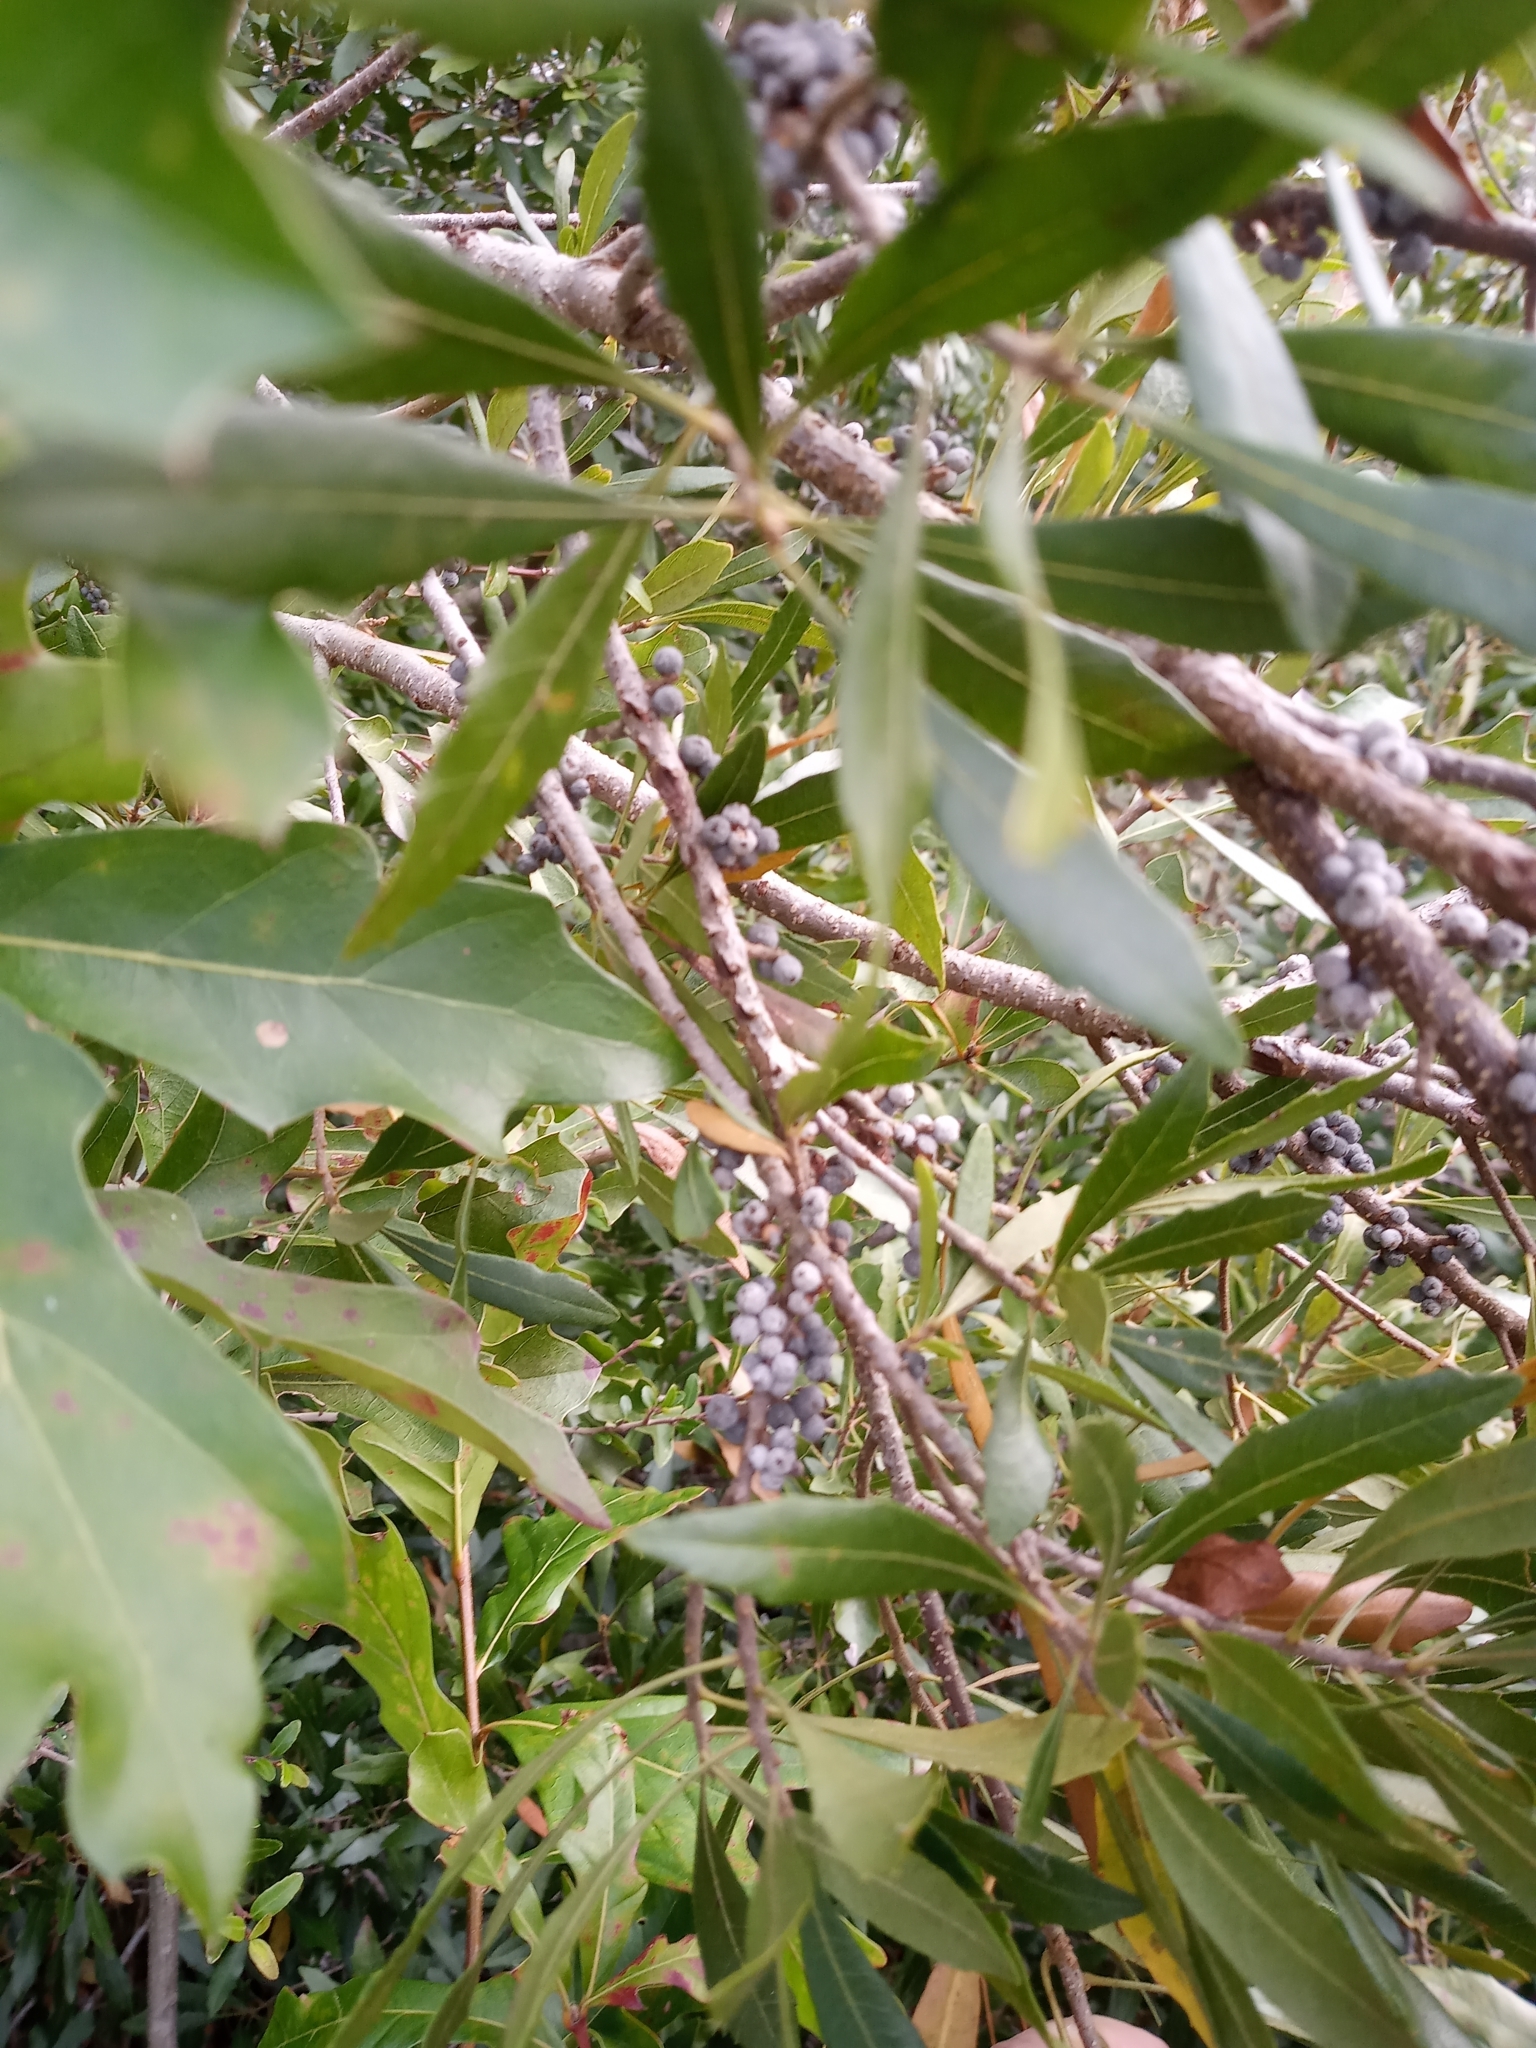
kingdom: Plantae
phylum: Tracheophyta
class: Magnoliopsida
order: Fagales
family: Myricaceae
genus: Morella
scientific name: Morella cerifera
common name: Wax myrtle
